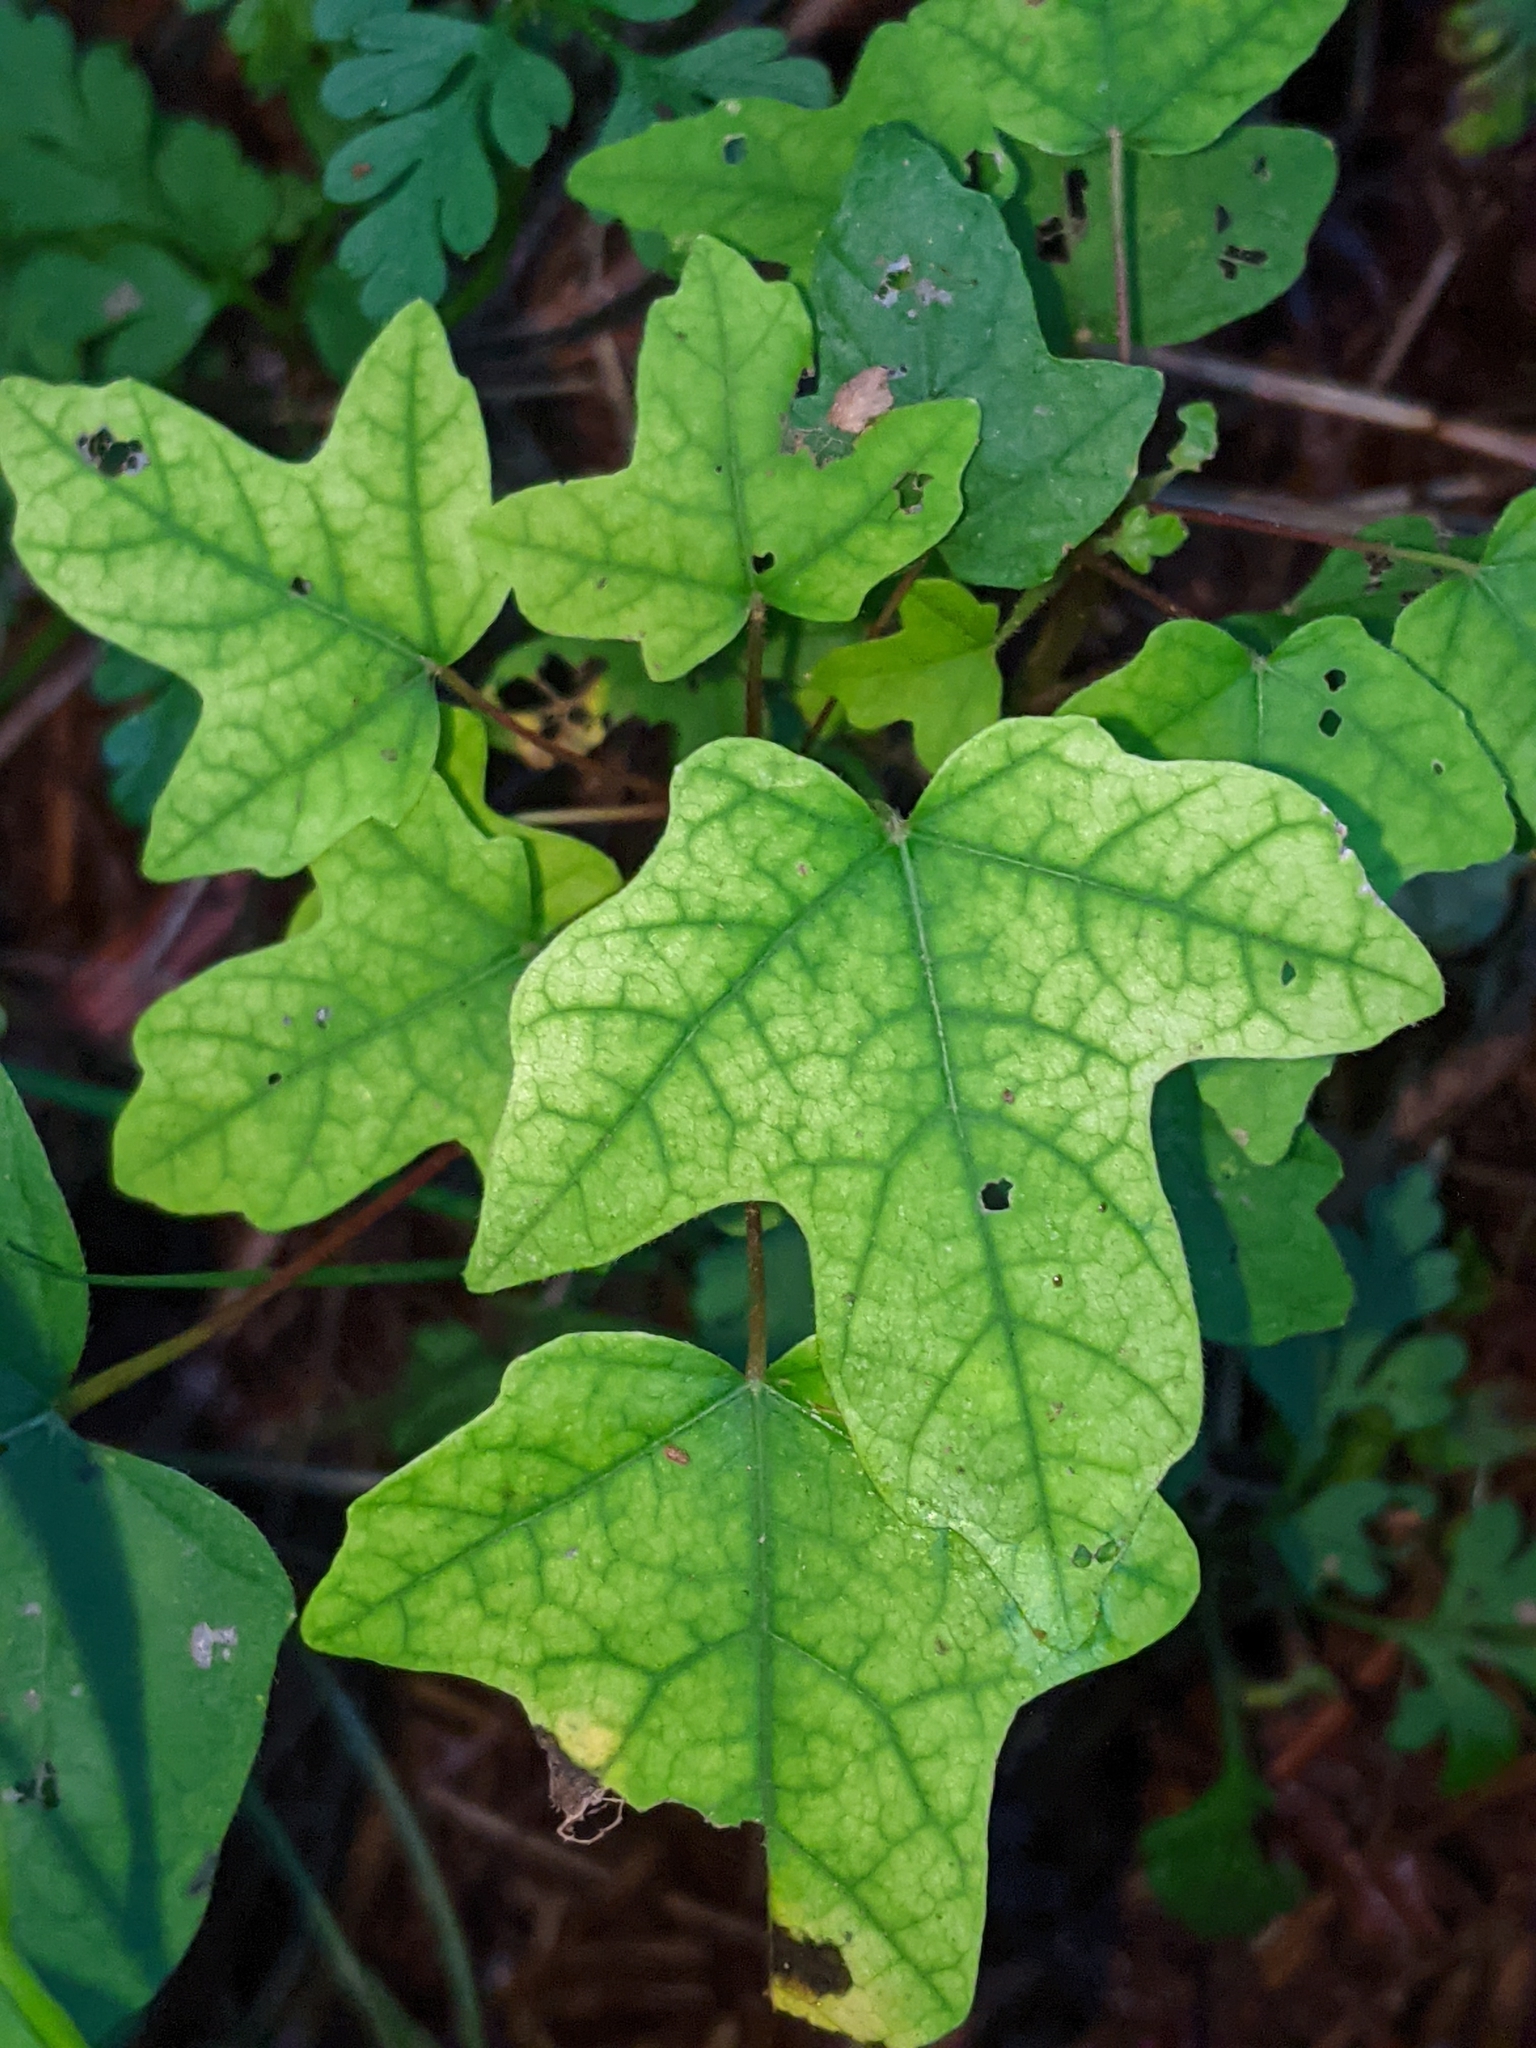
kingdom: Plantae
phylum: Tracheophyta
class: Magnoliopsida
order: Sapindales
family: Sapindaceae
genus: Acer
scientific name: Acer campestre
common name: Field maple
